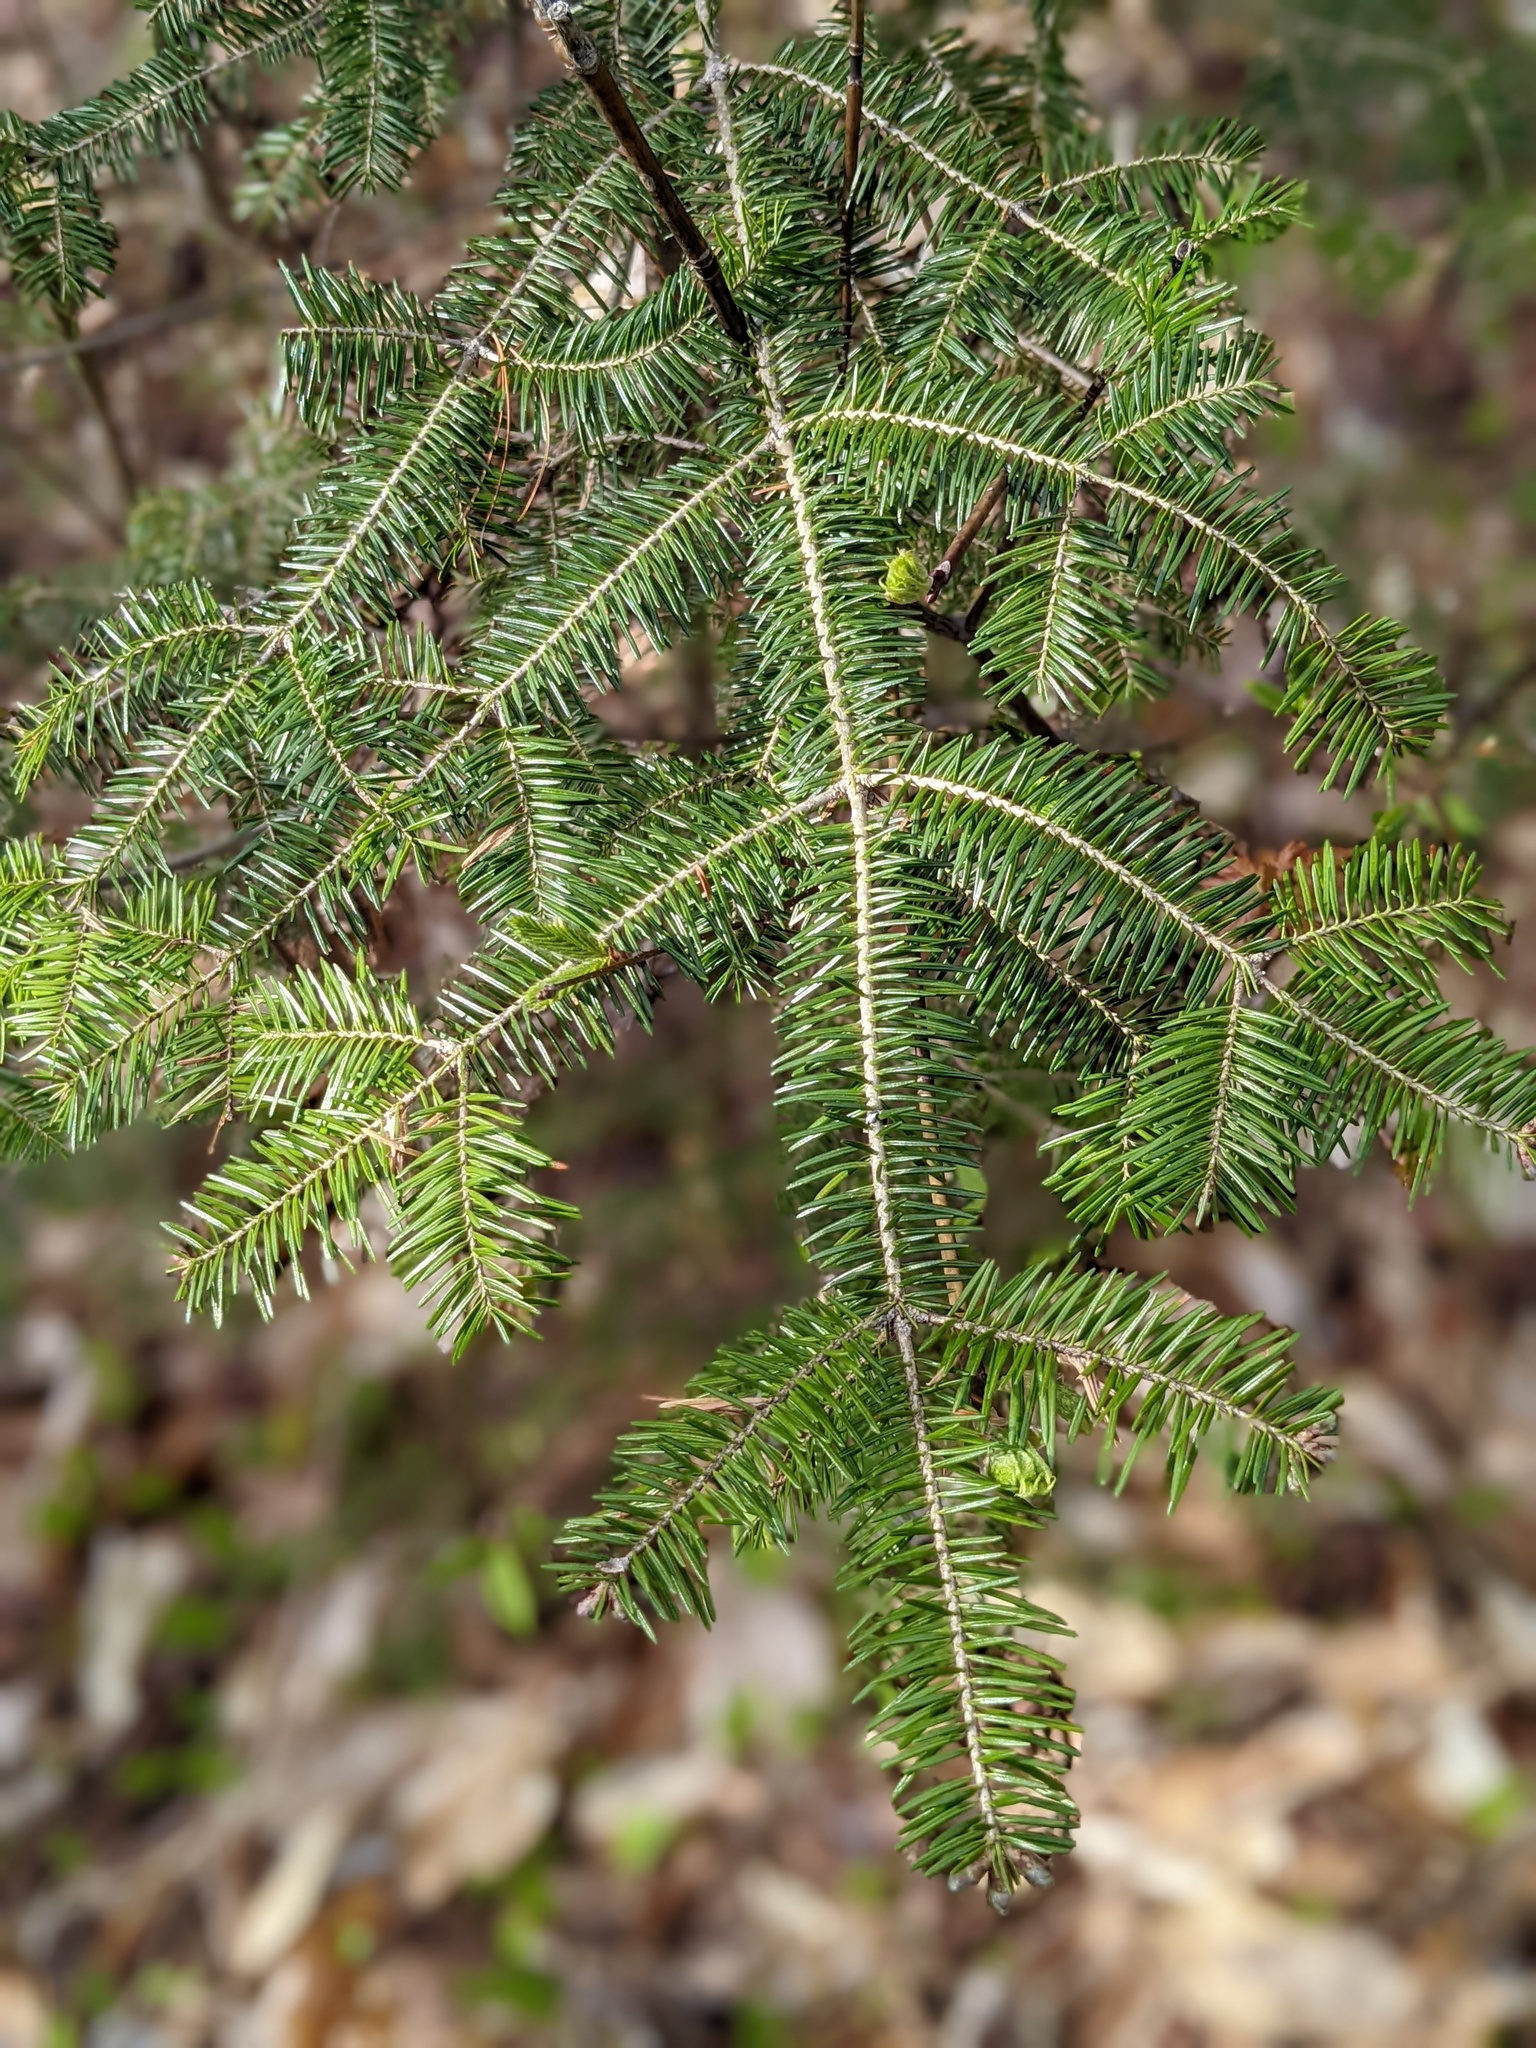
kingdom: Plantae
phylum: Tracheophyta
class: Pinopsida
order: Pinales
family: Pinaceae
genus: Abies
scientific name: Abies balsamea
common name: Balsam fir
